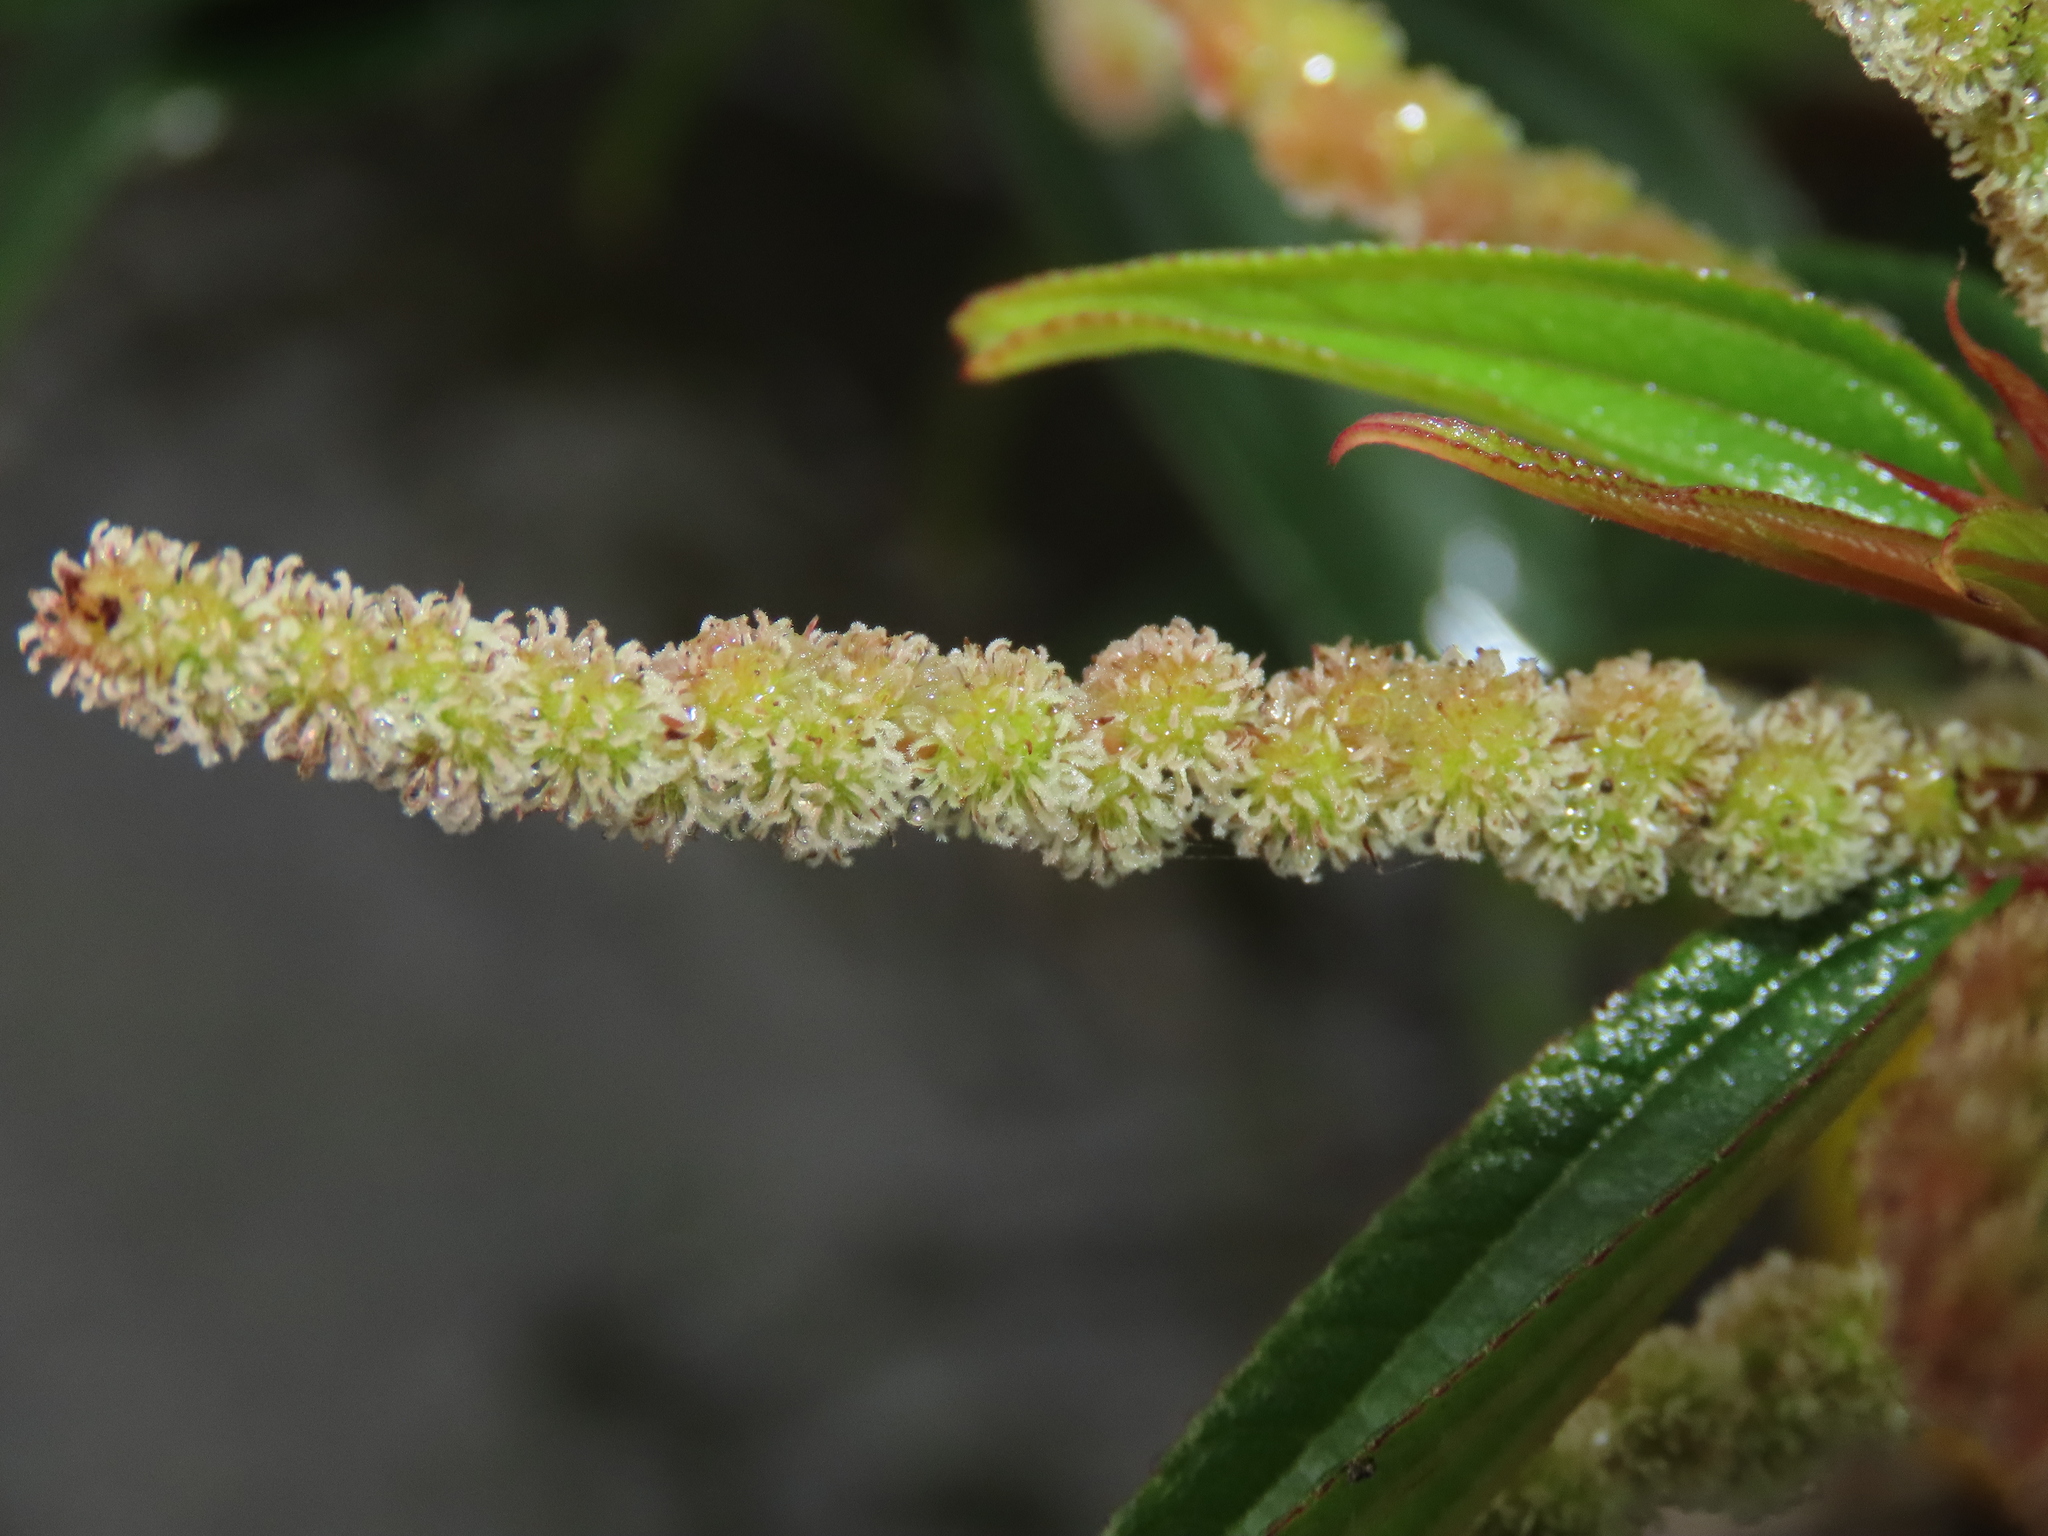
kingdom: Plantae
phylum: Tracheophyta
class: Magnoliopsida
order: Rosales
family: Urticaceae
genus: Boehmeria
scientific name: Boehmeria densiflora
